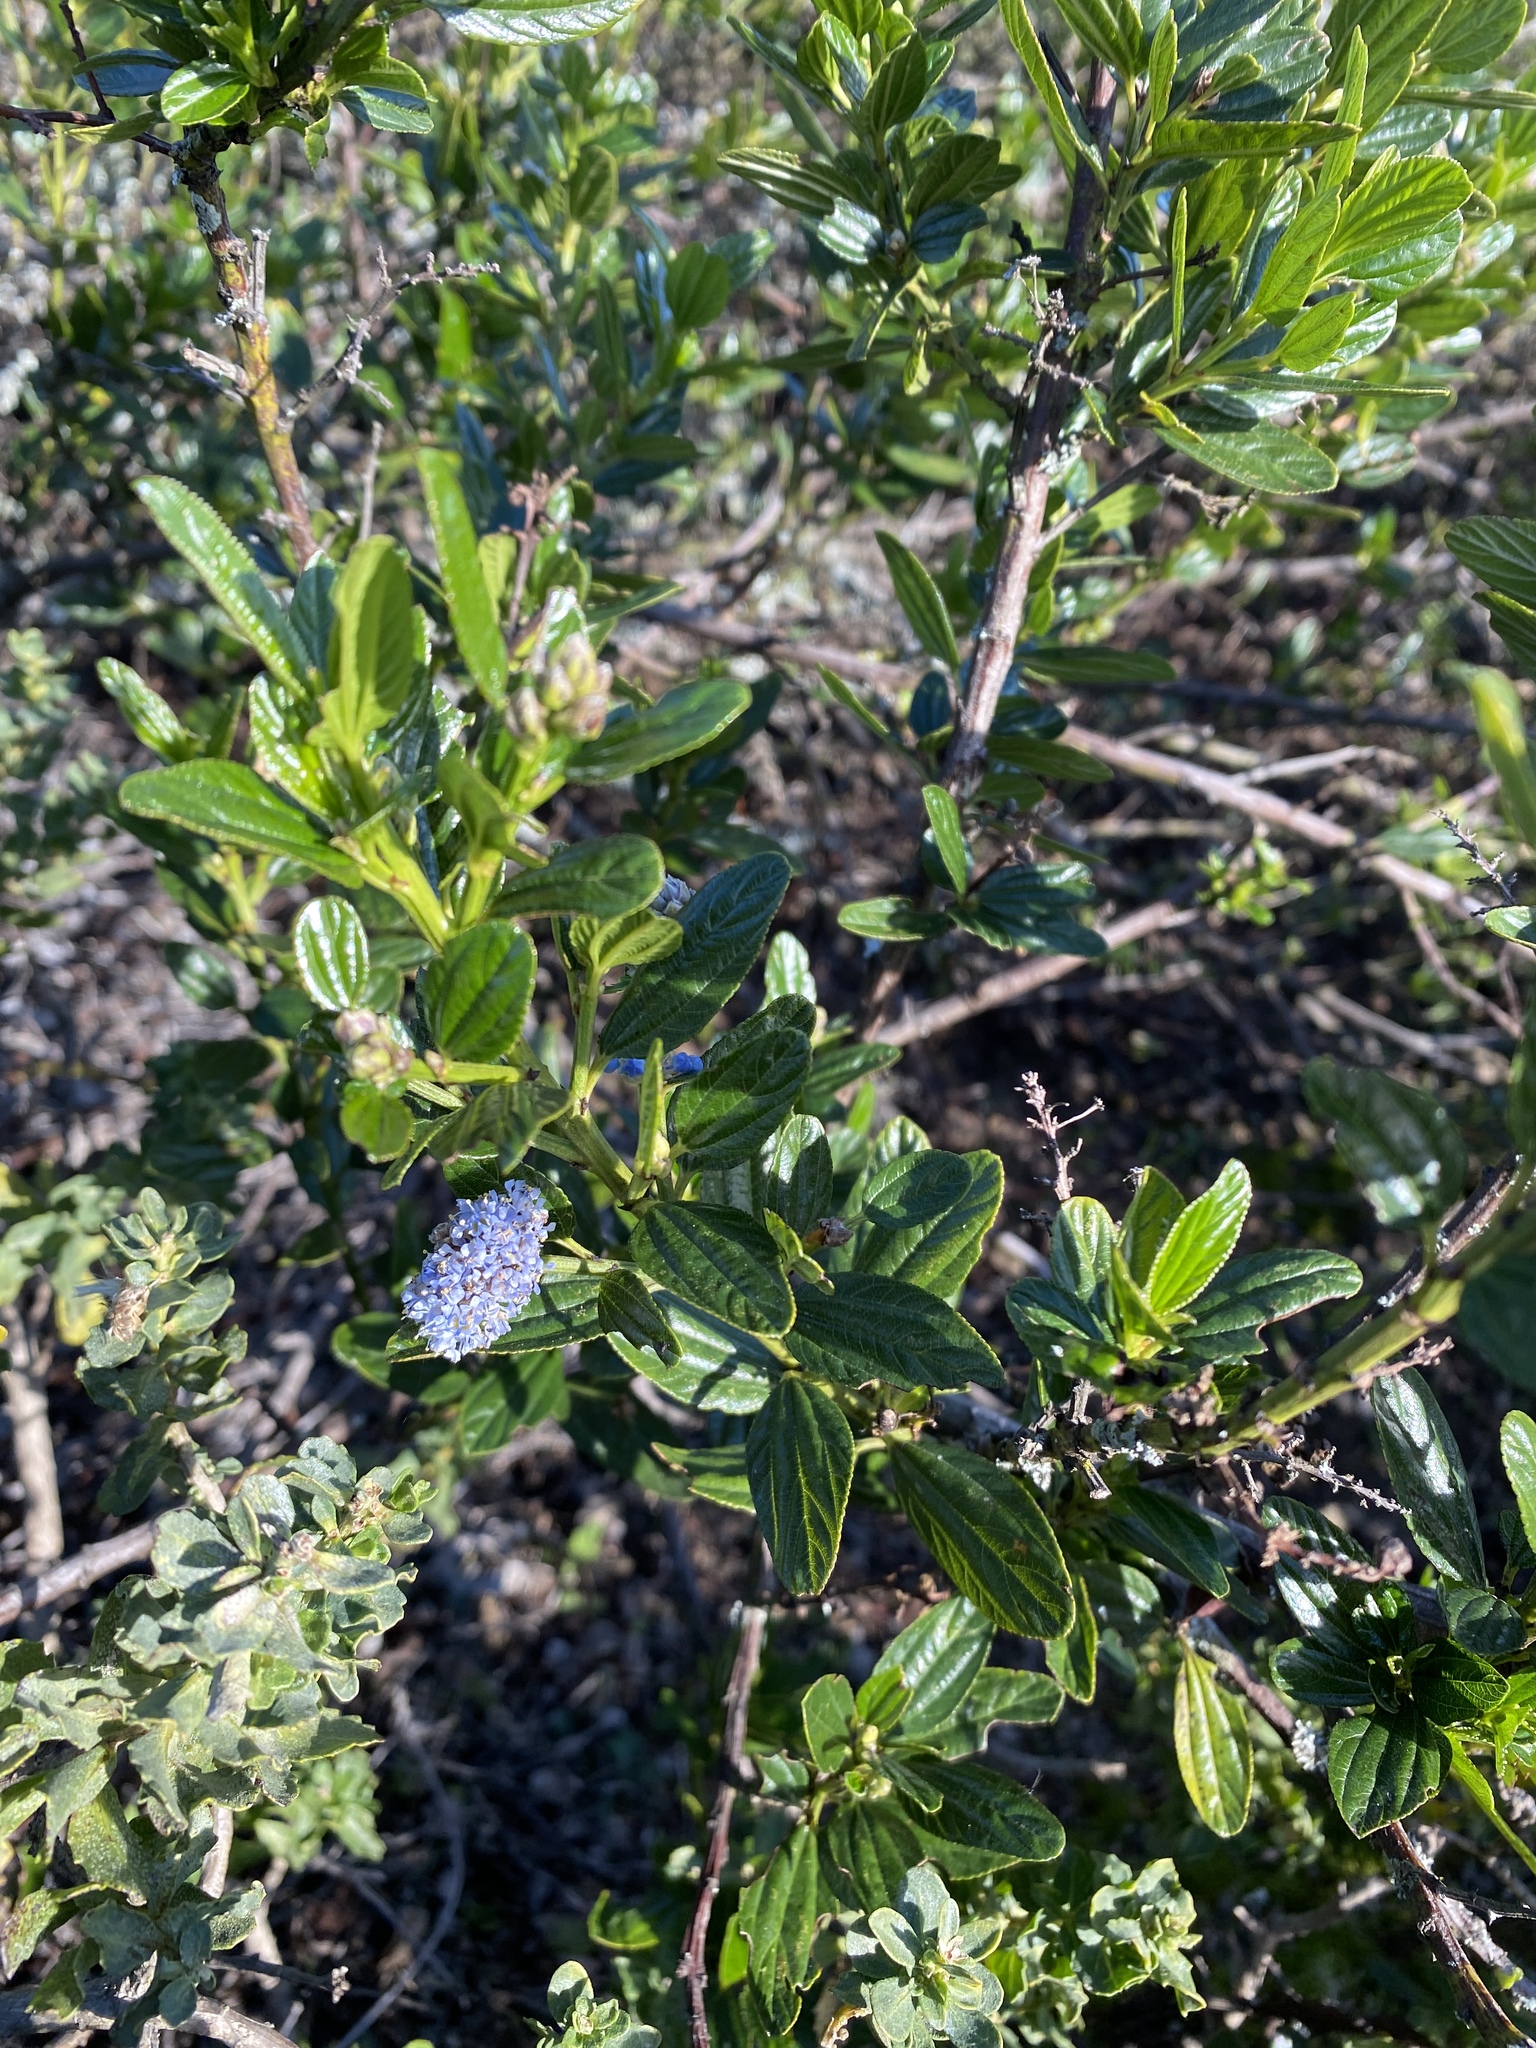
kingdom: Plantae
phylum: Tracheophyta
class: Magnoliopsida
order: Rosales
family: Rhamnaceae
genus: Ceanothus
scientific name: Ceanothus thyrsiflorus
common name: California-lilac
